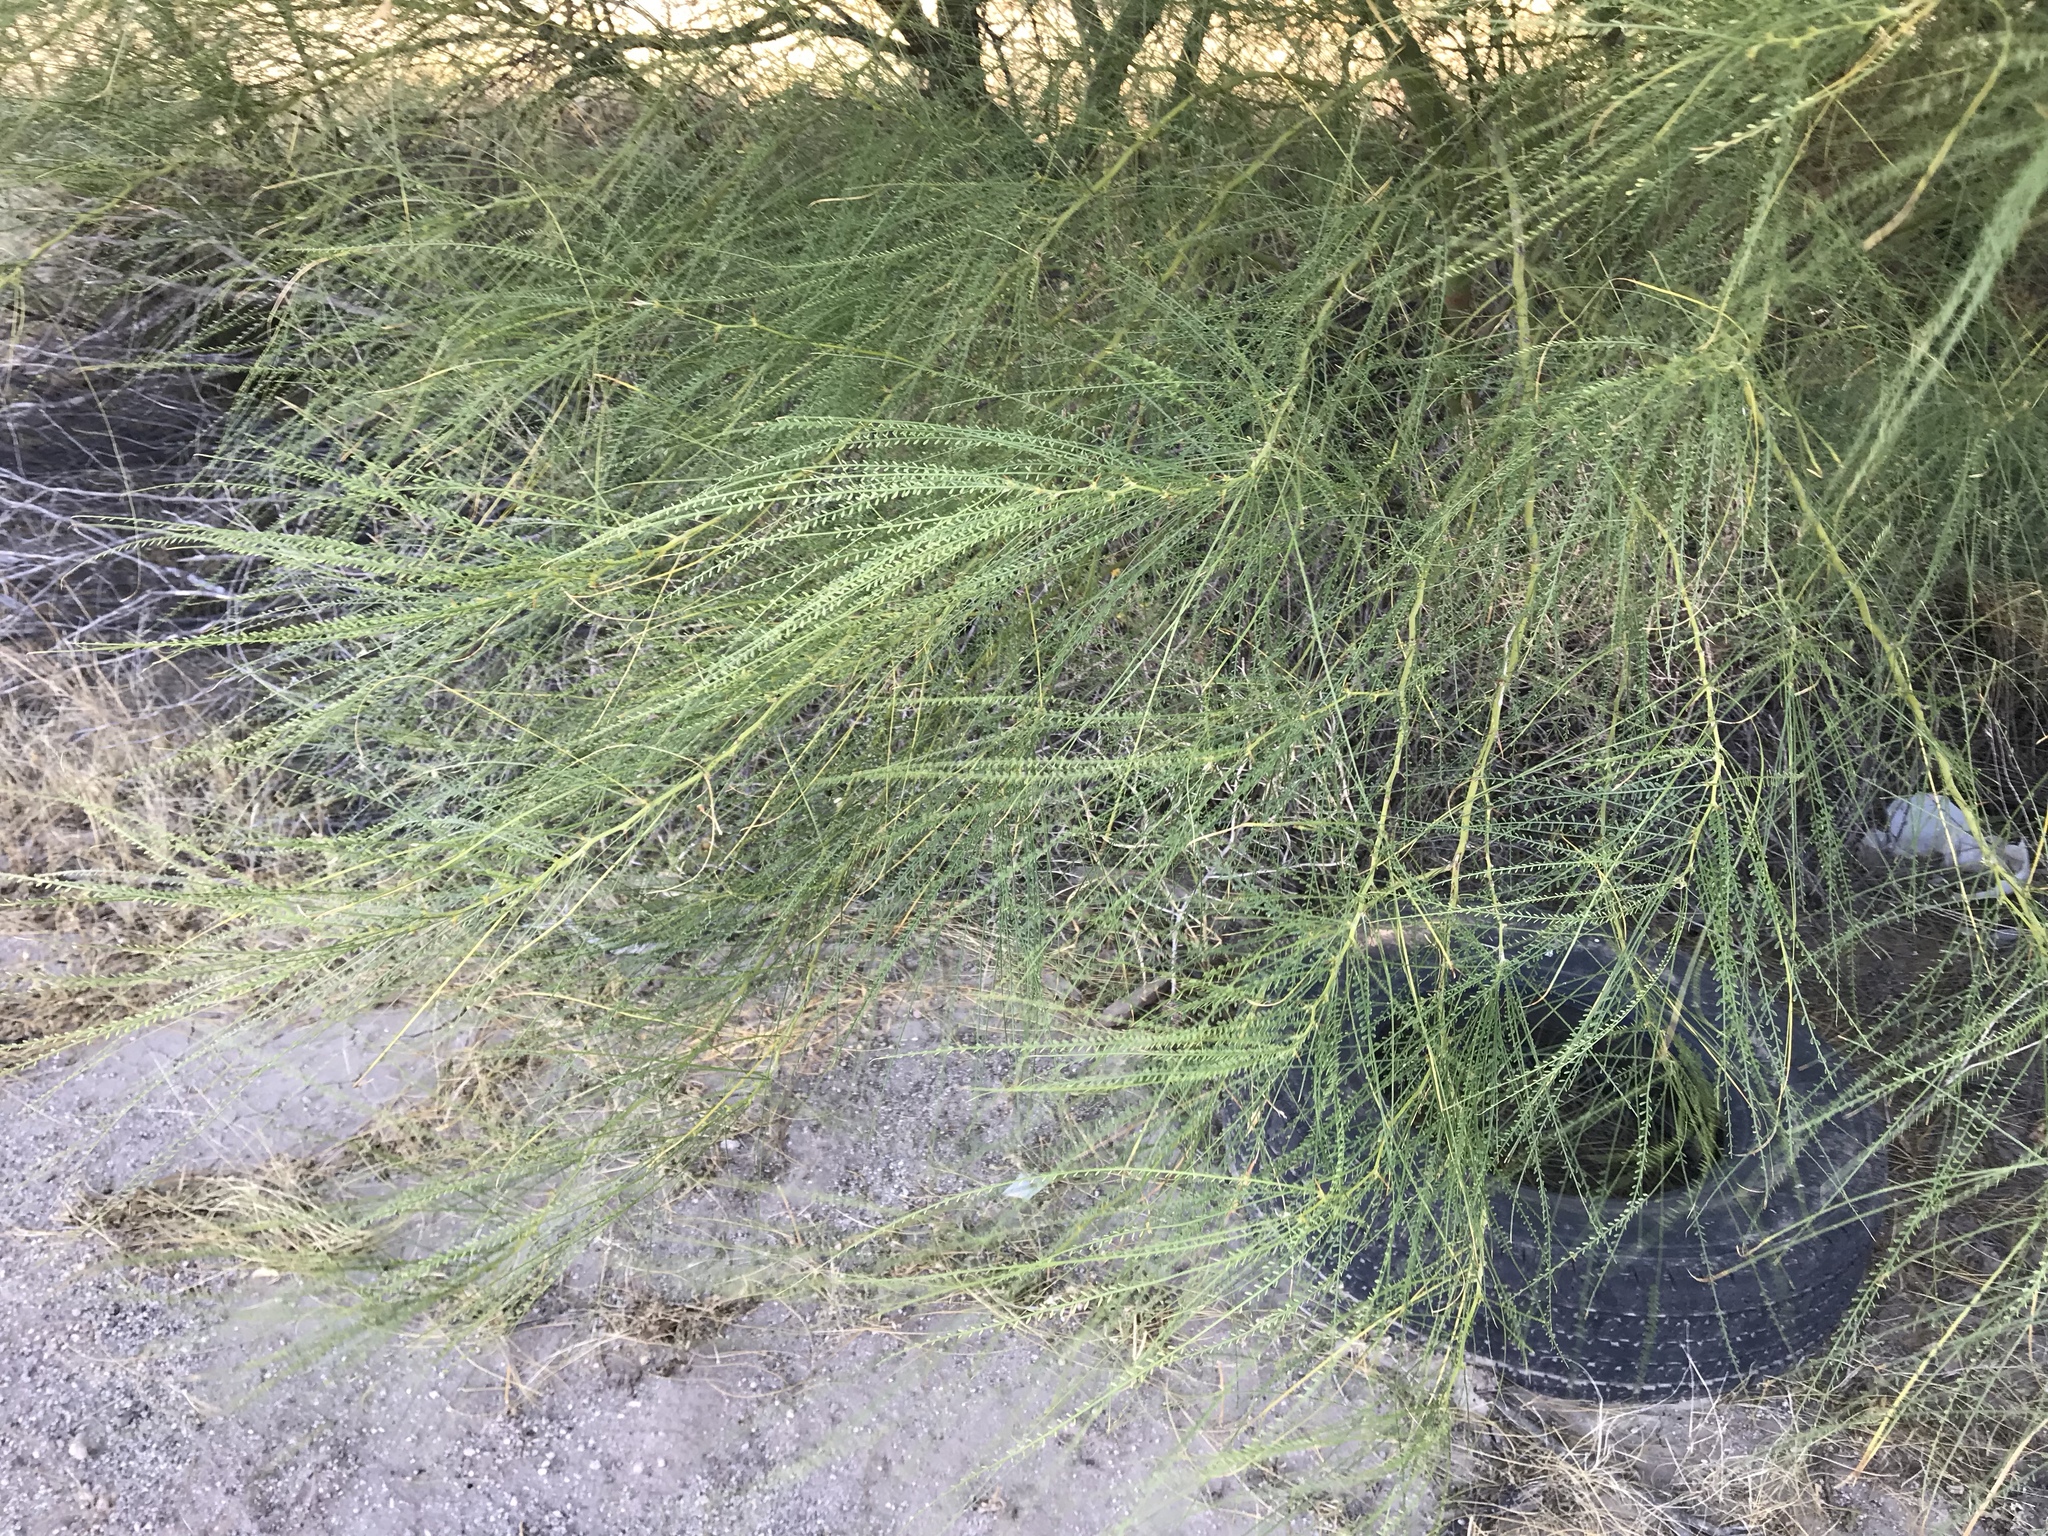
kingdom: Plantae
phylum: Tracheophyta
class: Magnoliopsida
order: Fabales
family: Fabaceae
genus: Parkinsonia
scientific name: Parkinsonia aculeata
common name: Jerusalem thorn
